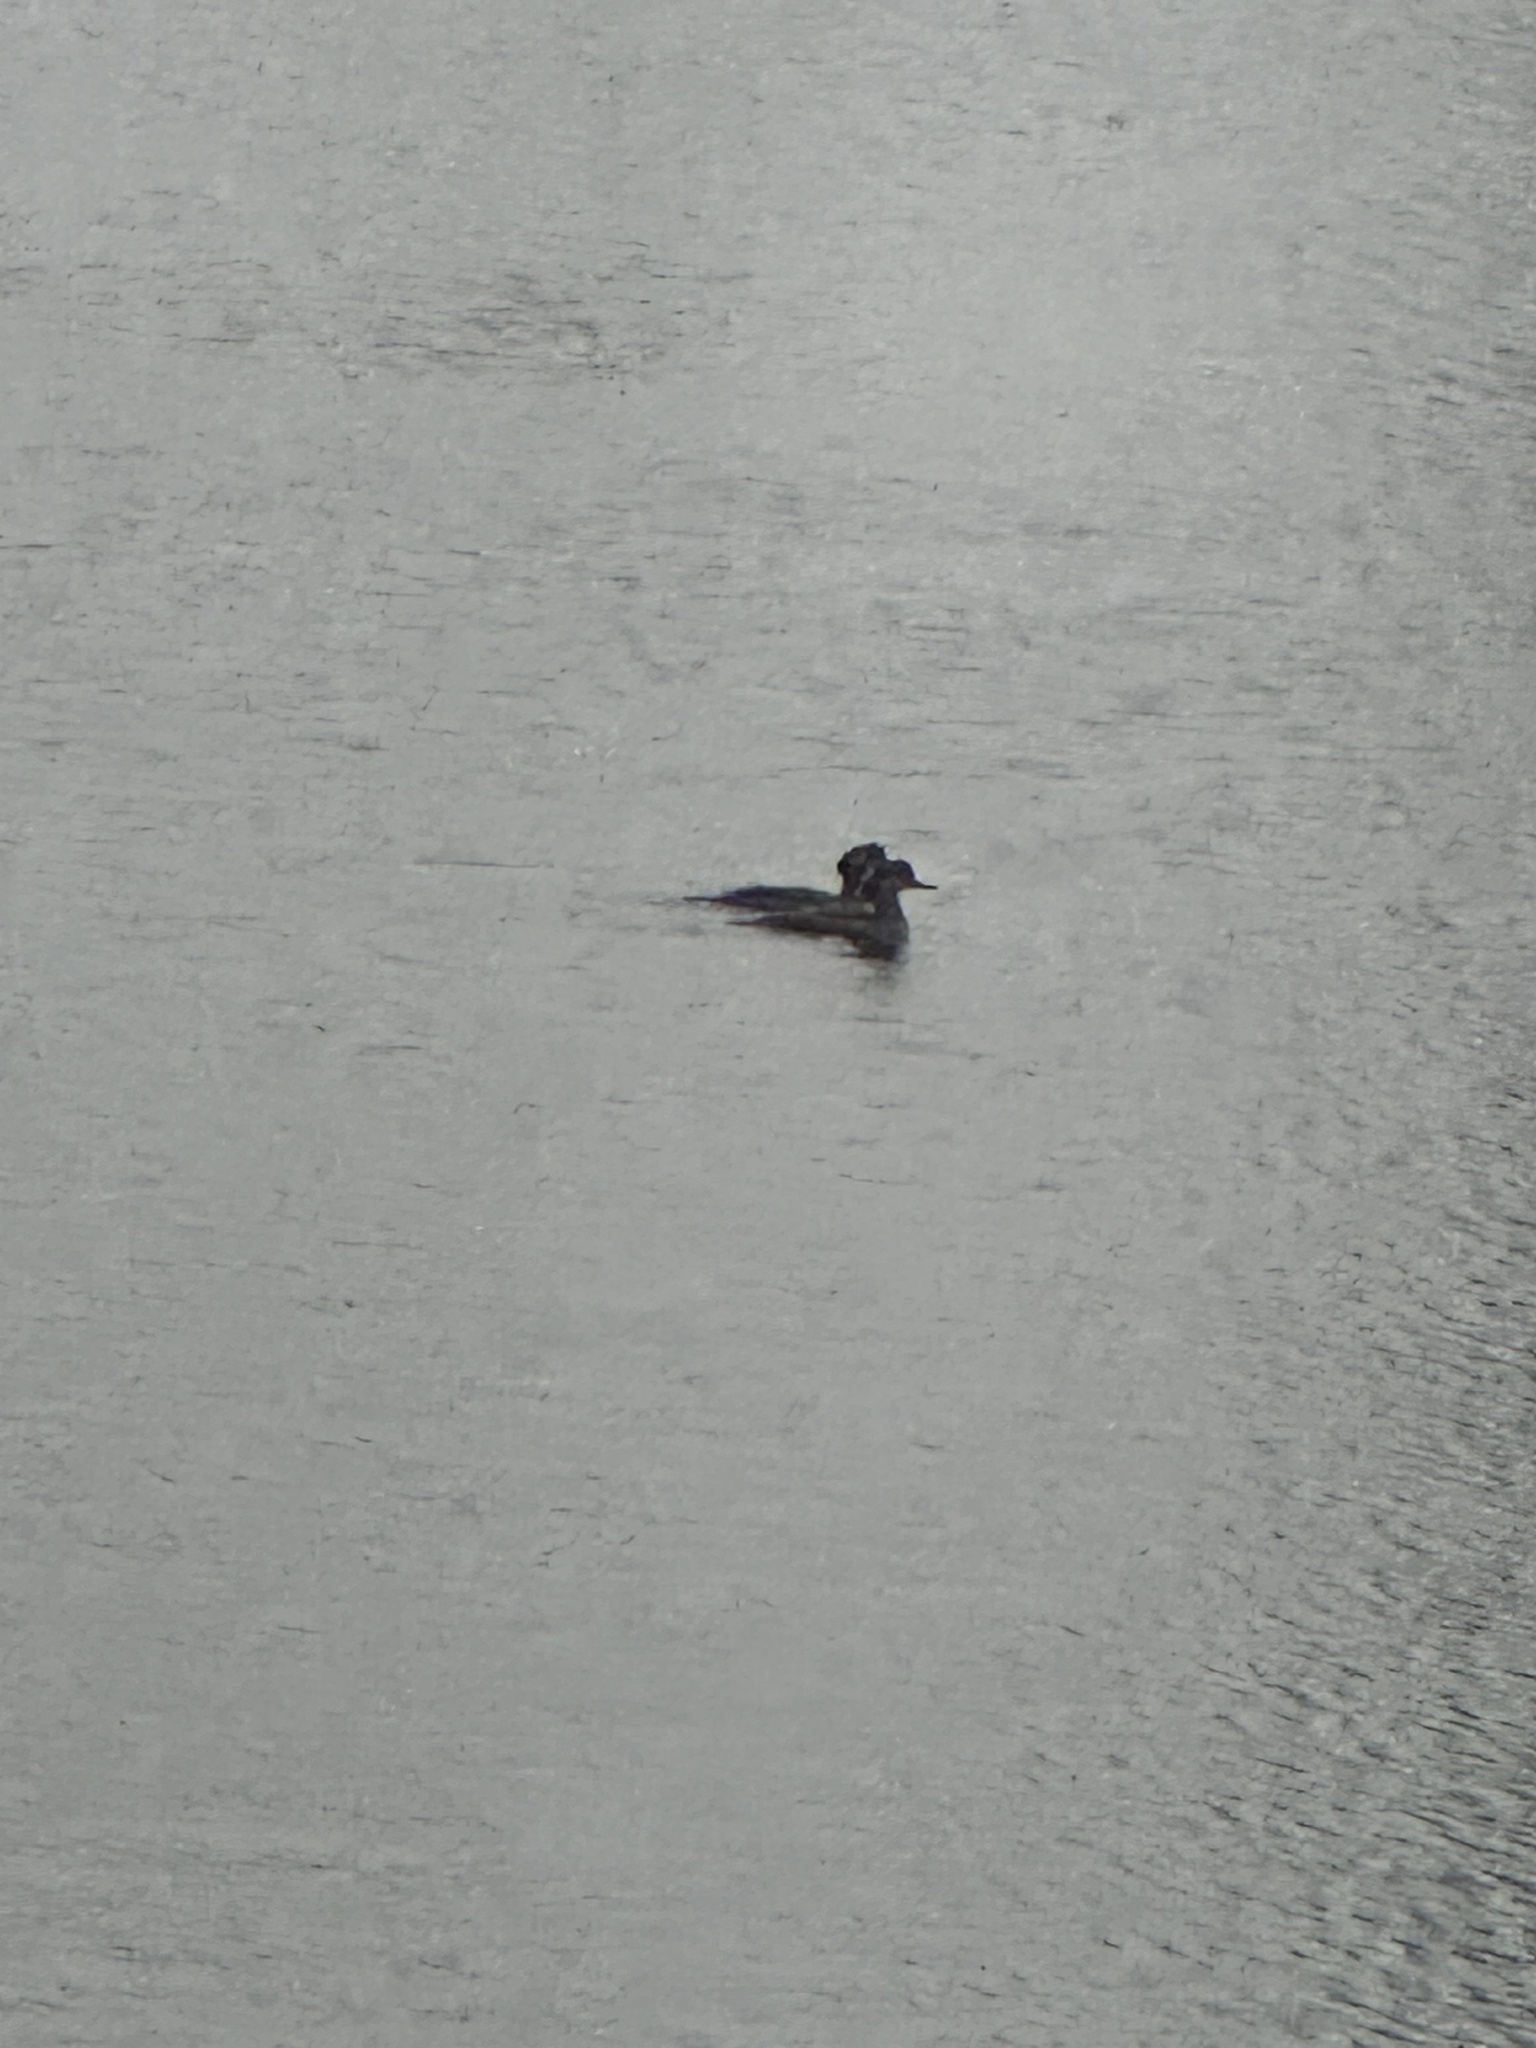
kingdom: Animalia
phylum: Chordata
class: Aves
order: Anseriformes
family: Anatidae
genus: Lophodytes
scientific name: Lophodytes cucullatus
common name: Hooded merganser
